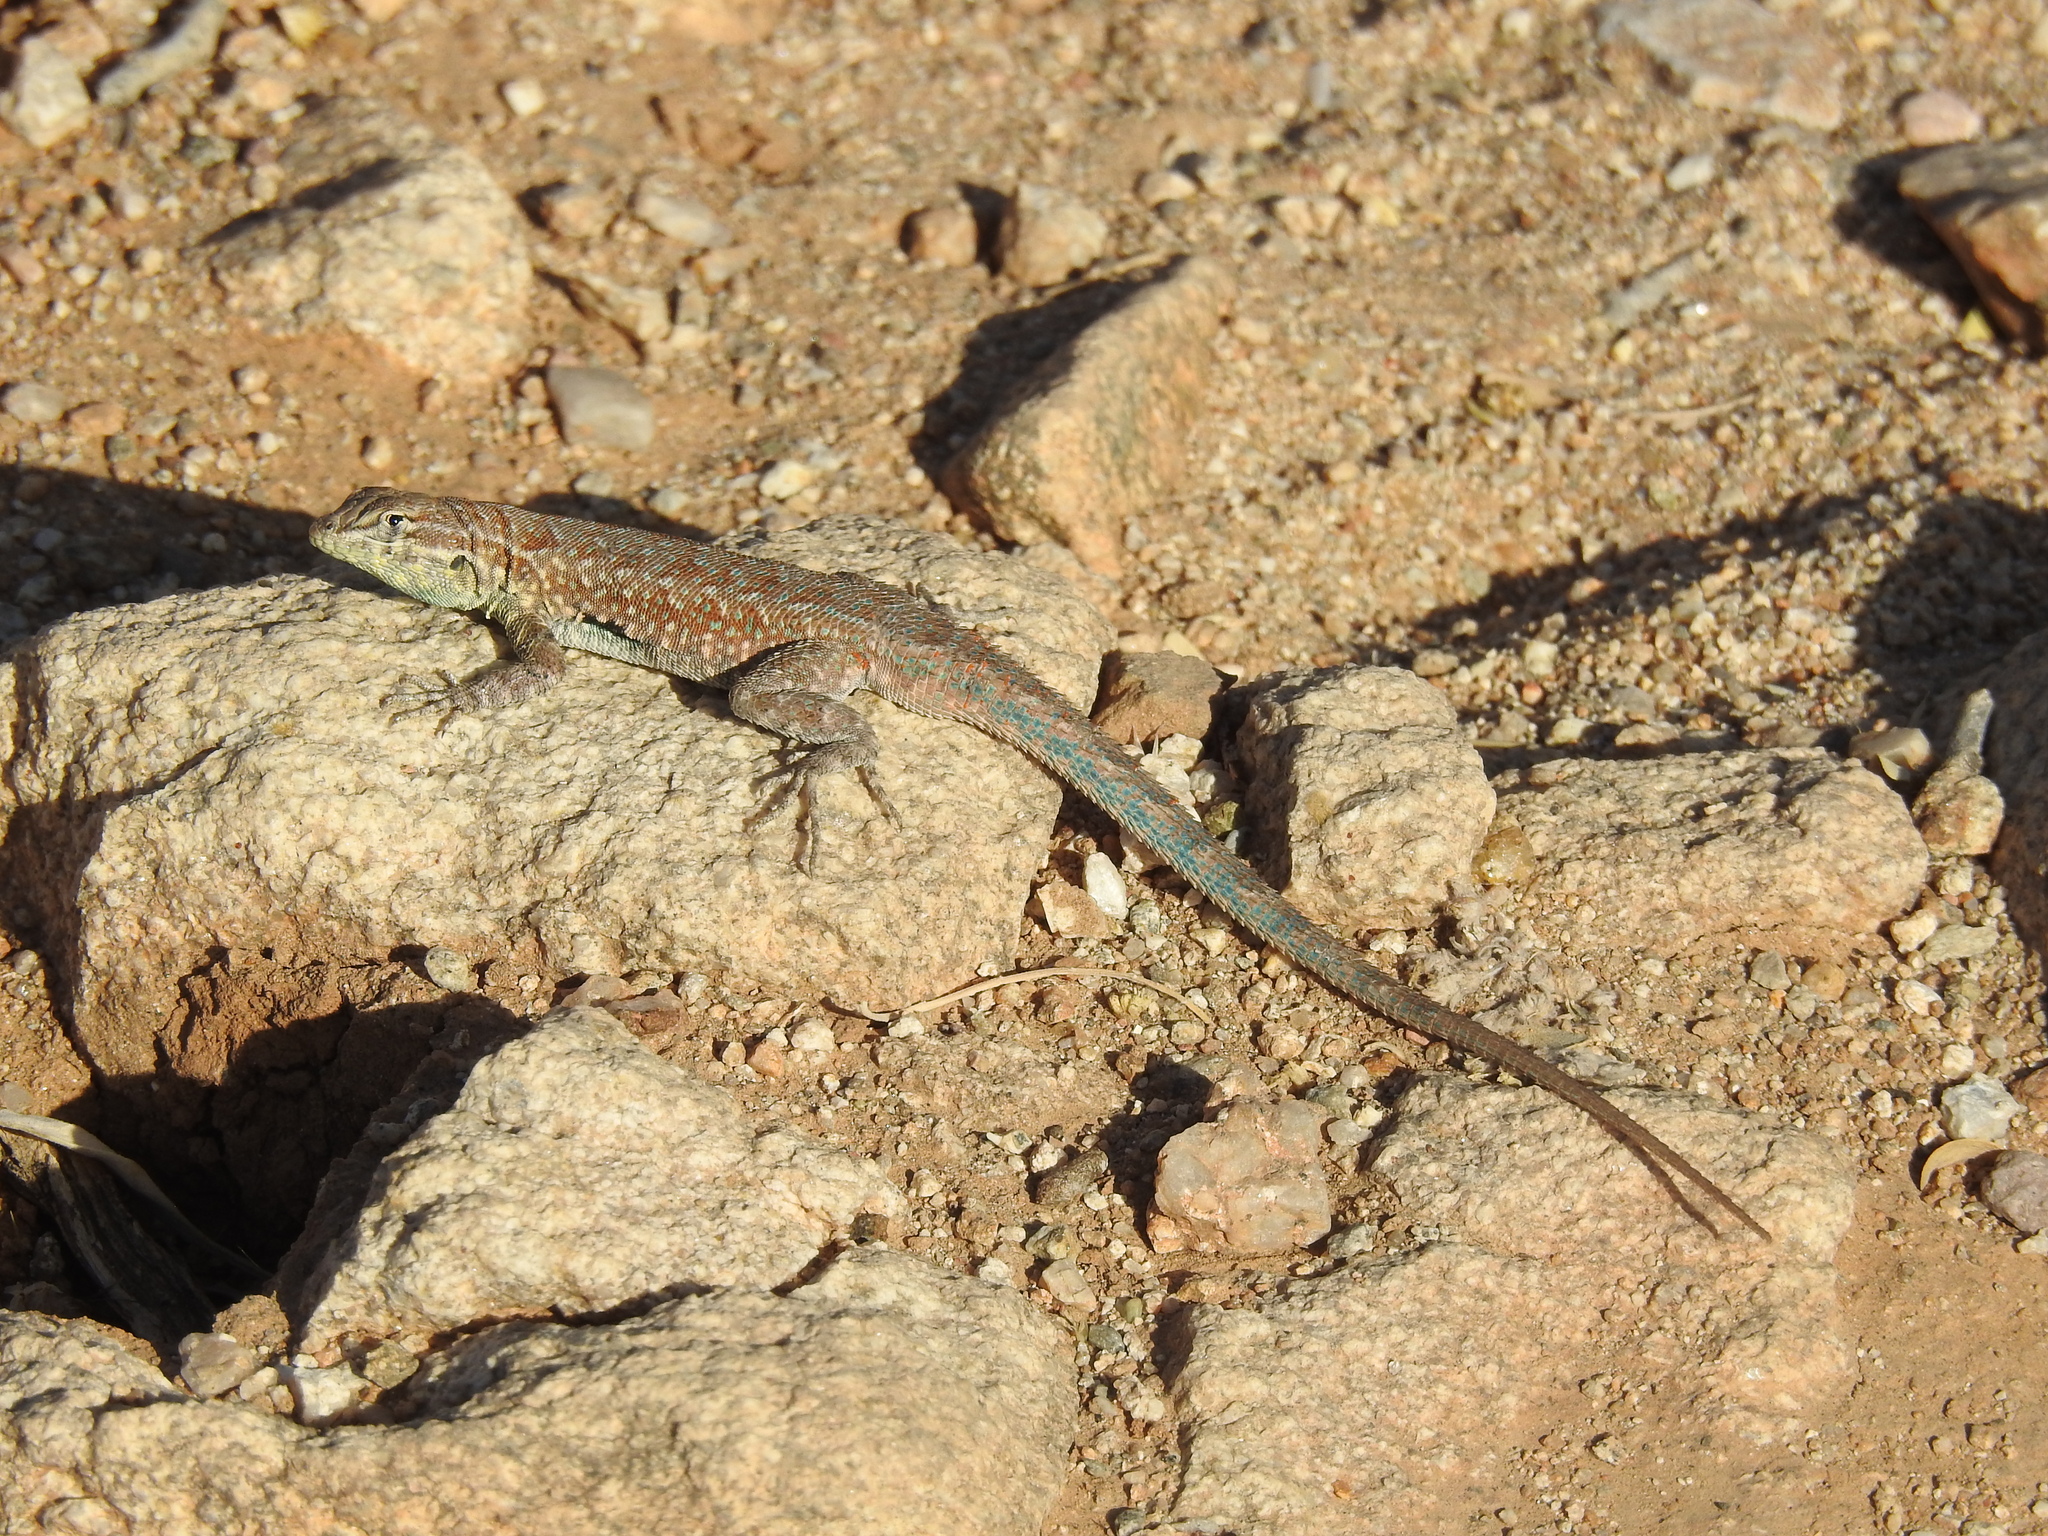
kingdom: Animalia
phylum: Chordata
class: Squamata
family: Phrynosomatidae
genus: Uta
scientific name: Uta stansburiana
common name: Side-blotched lizard
